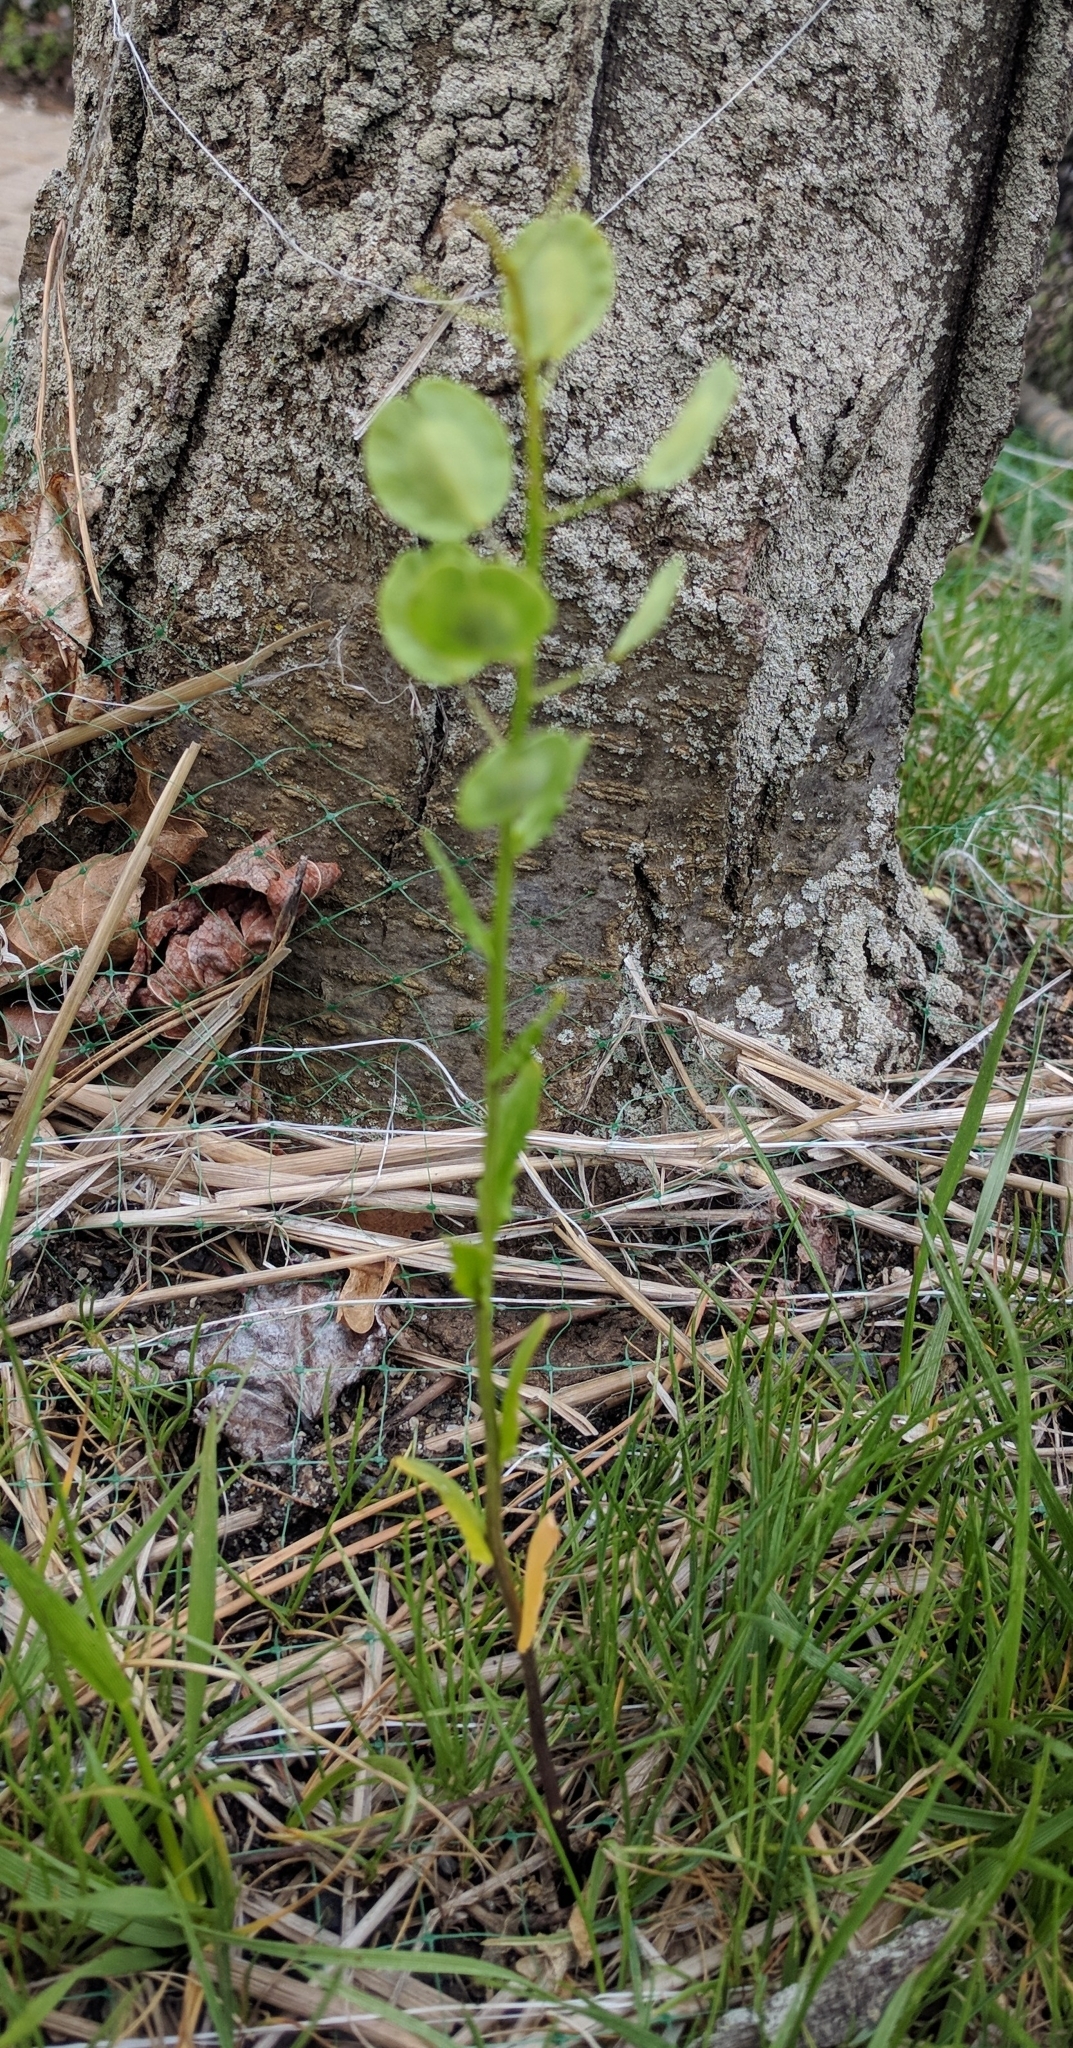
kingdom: Plantae
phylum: Tracheophyta
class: Magnoliopsida
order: Brassicales
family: Brassicaceae
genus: Thlaspi
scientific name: Thlaspi arvense
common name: Field pennycress
